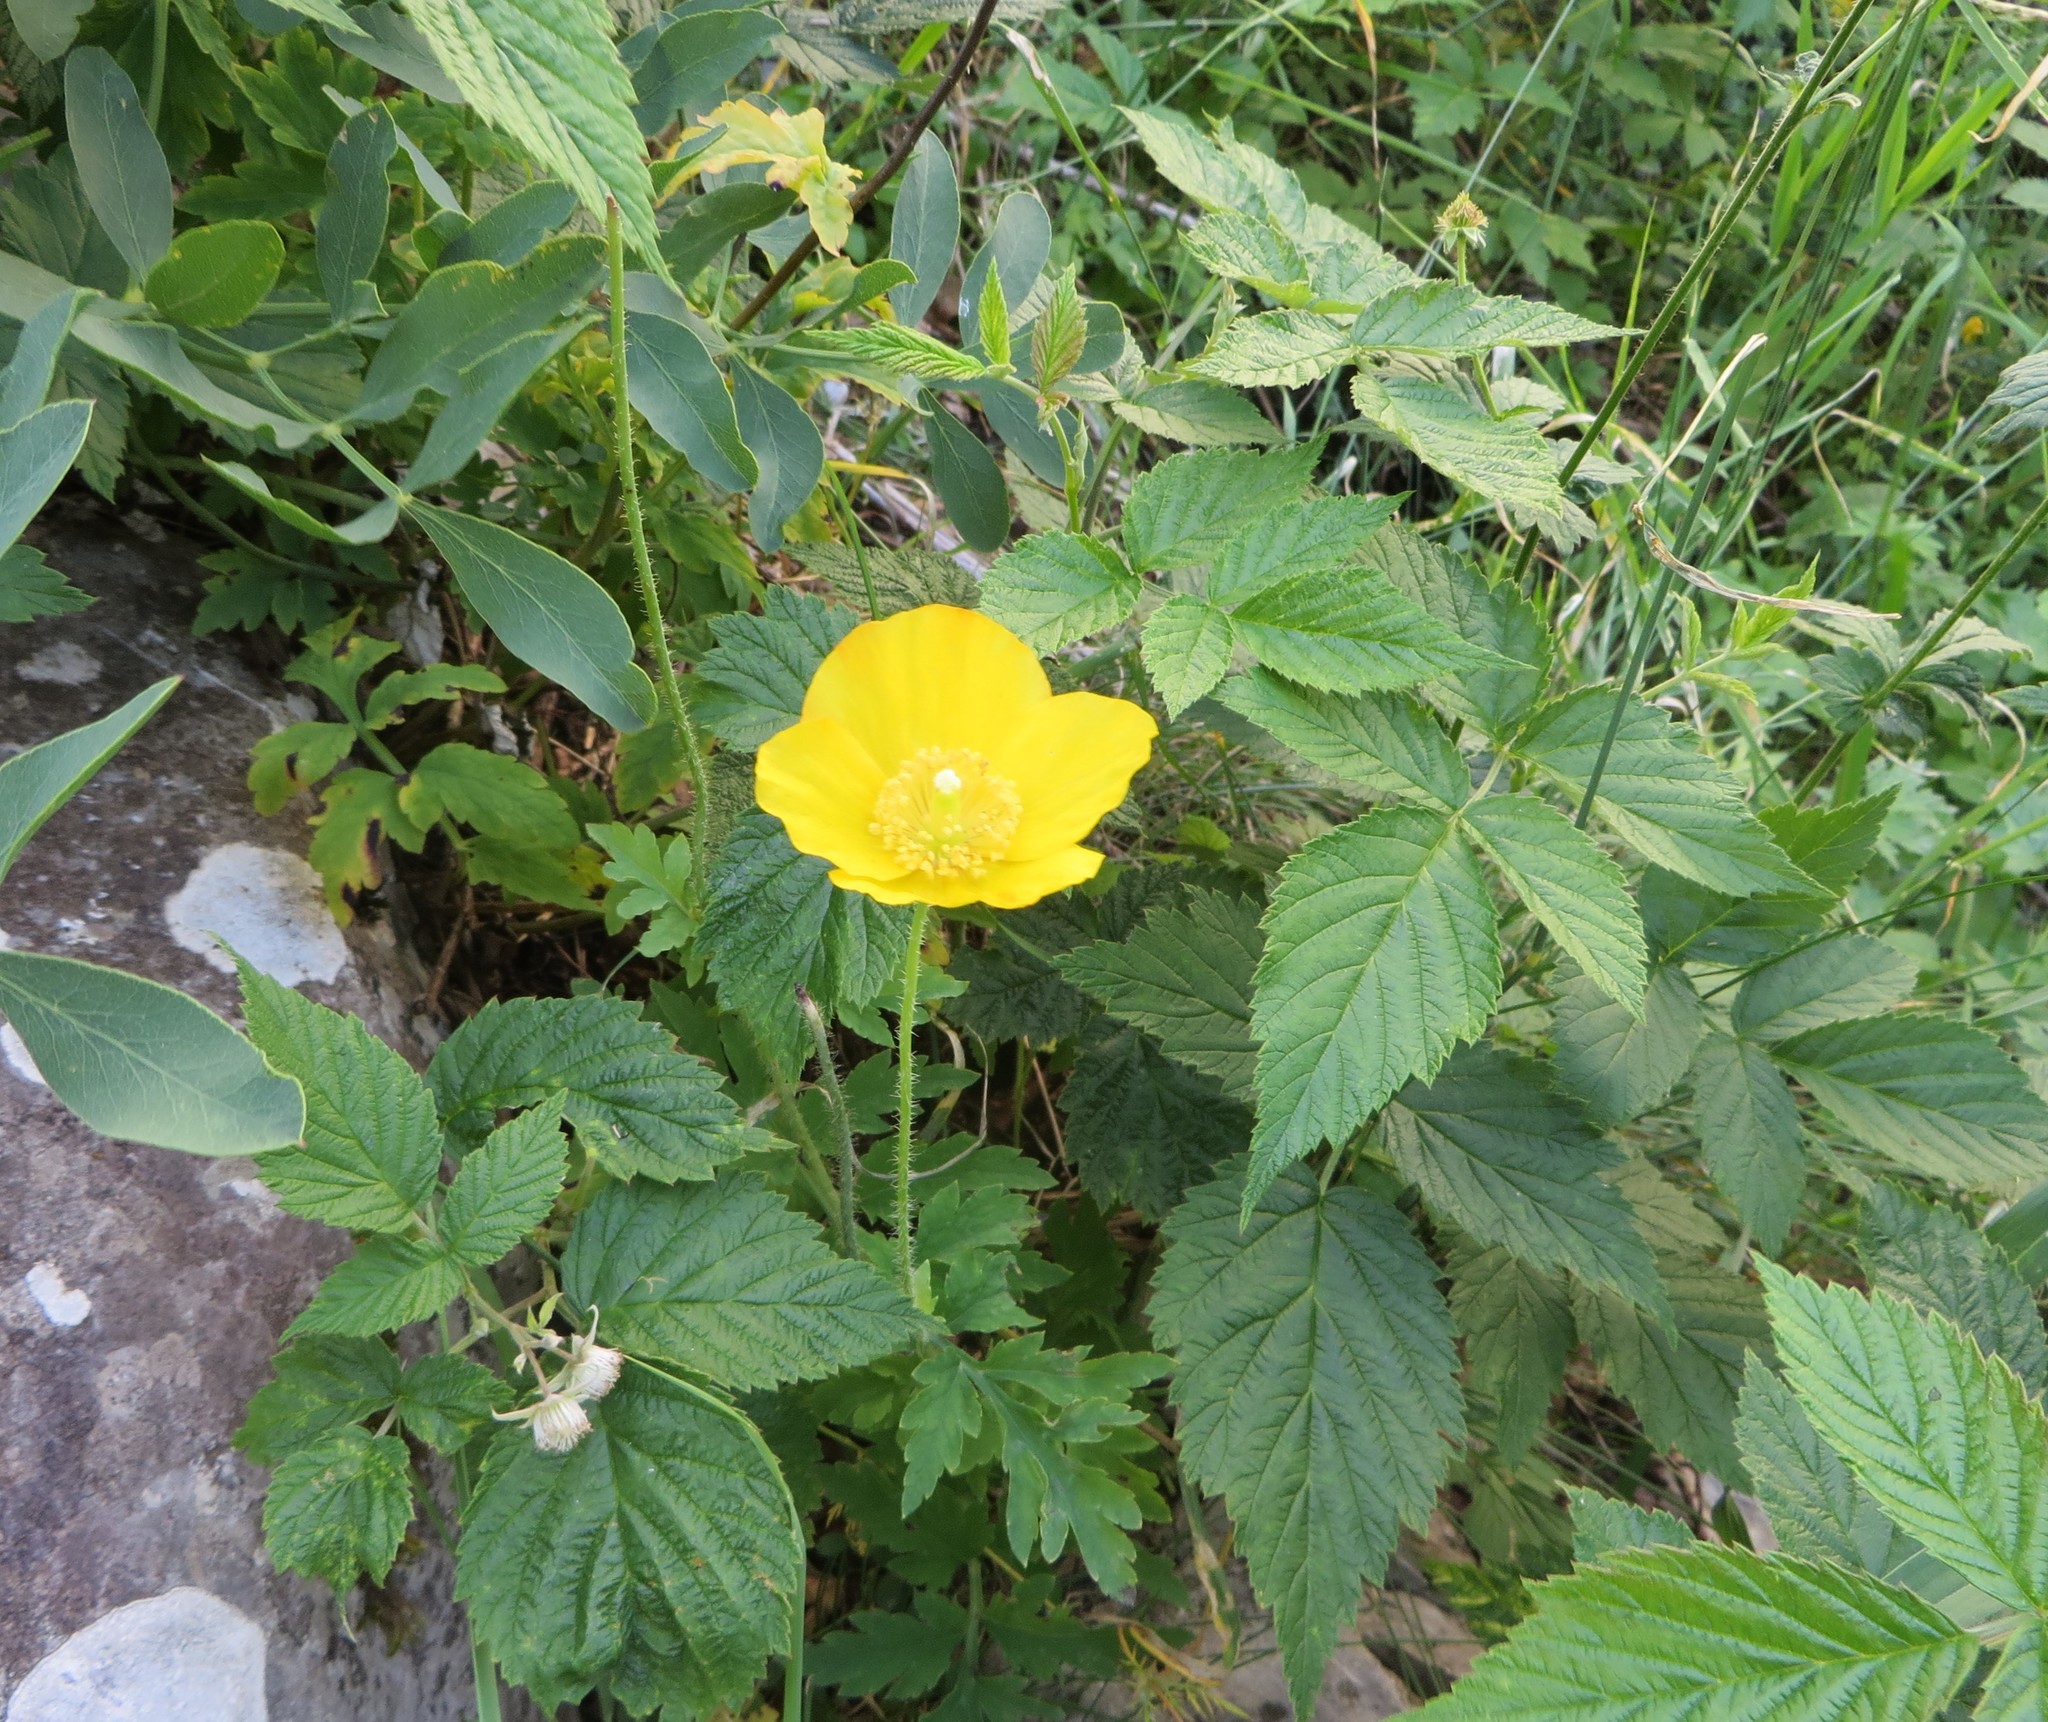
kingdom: Plantae
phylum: Tracheophyta
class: Magnoliopsida
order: Ranunculales
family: Papaveraceae
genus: Papaver
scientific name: Papaver cambricum
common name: Poppy
